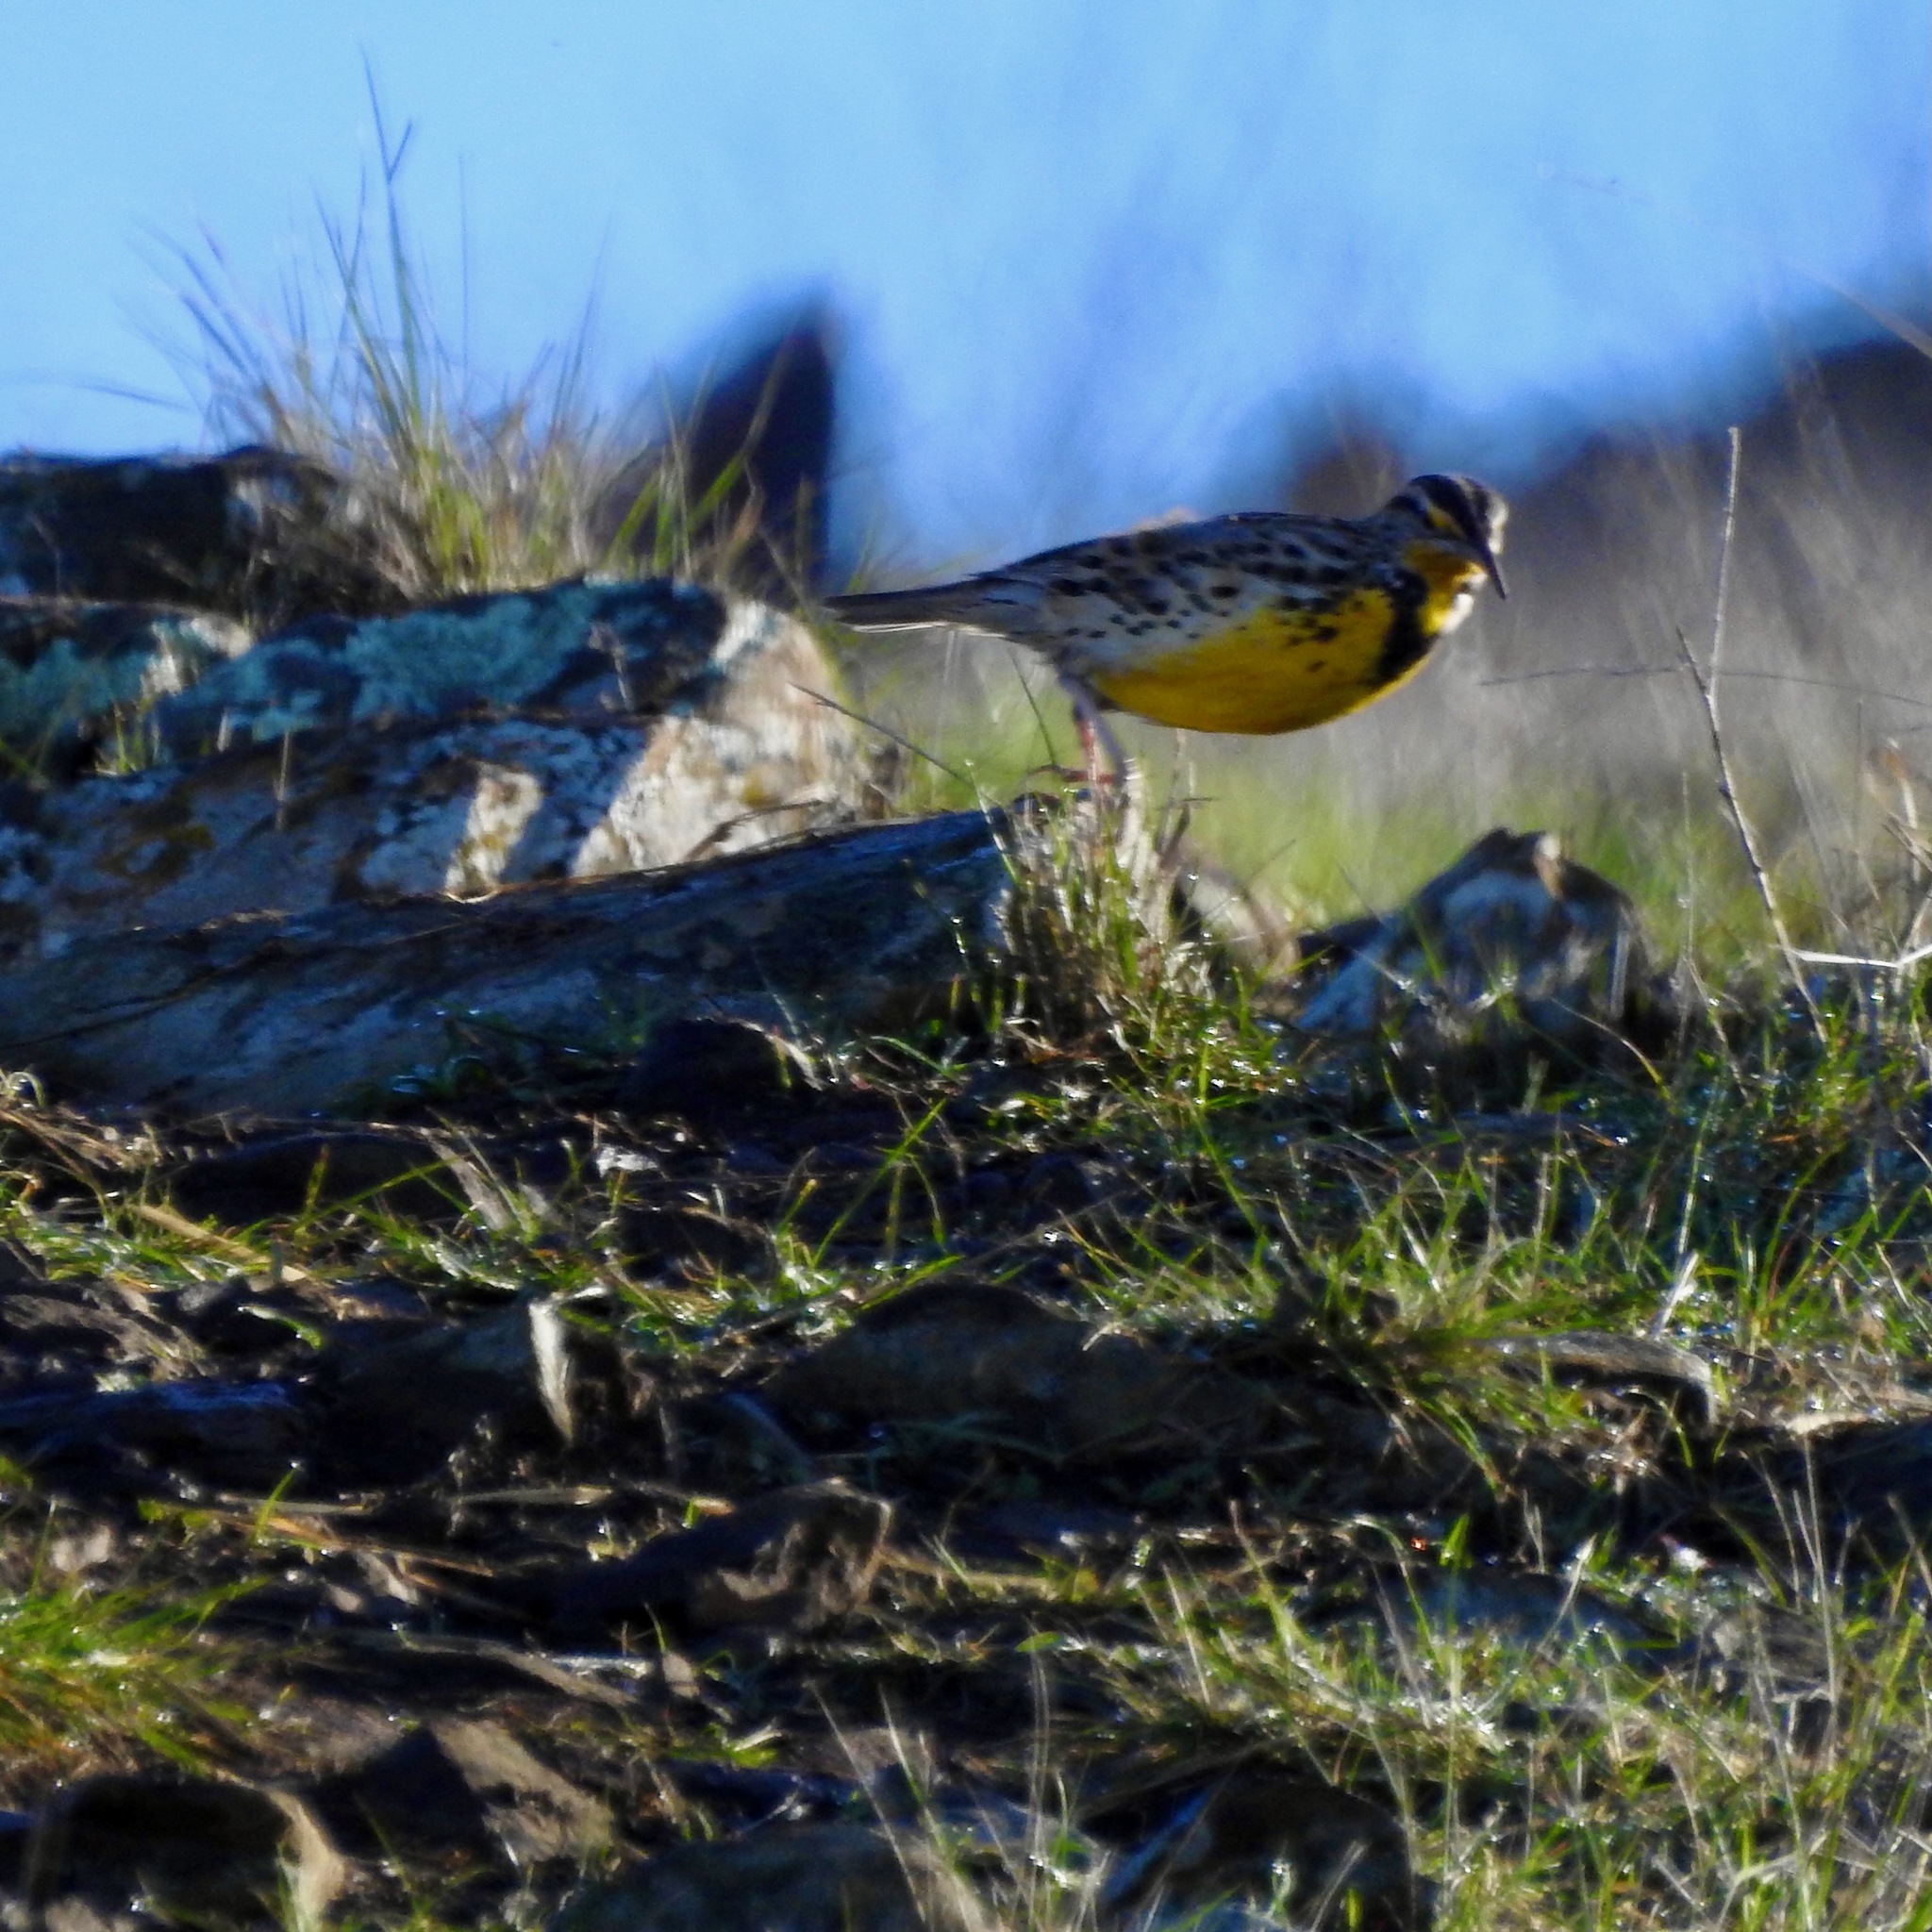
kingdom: Animalia
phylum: Chordata
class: Aves
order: Passeriformes
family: Icteridae
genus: Sturnella
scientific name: Sturnella neglecta
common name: Western meadowlark
